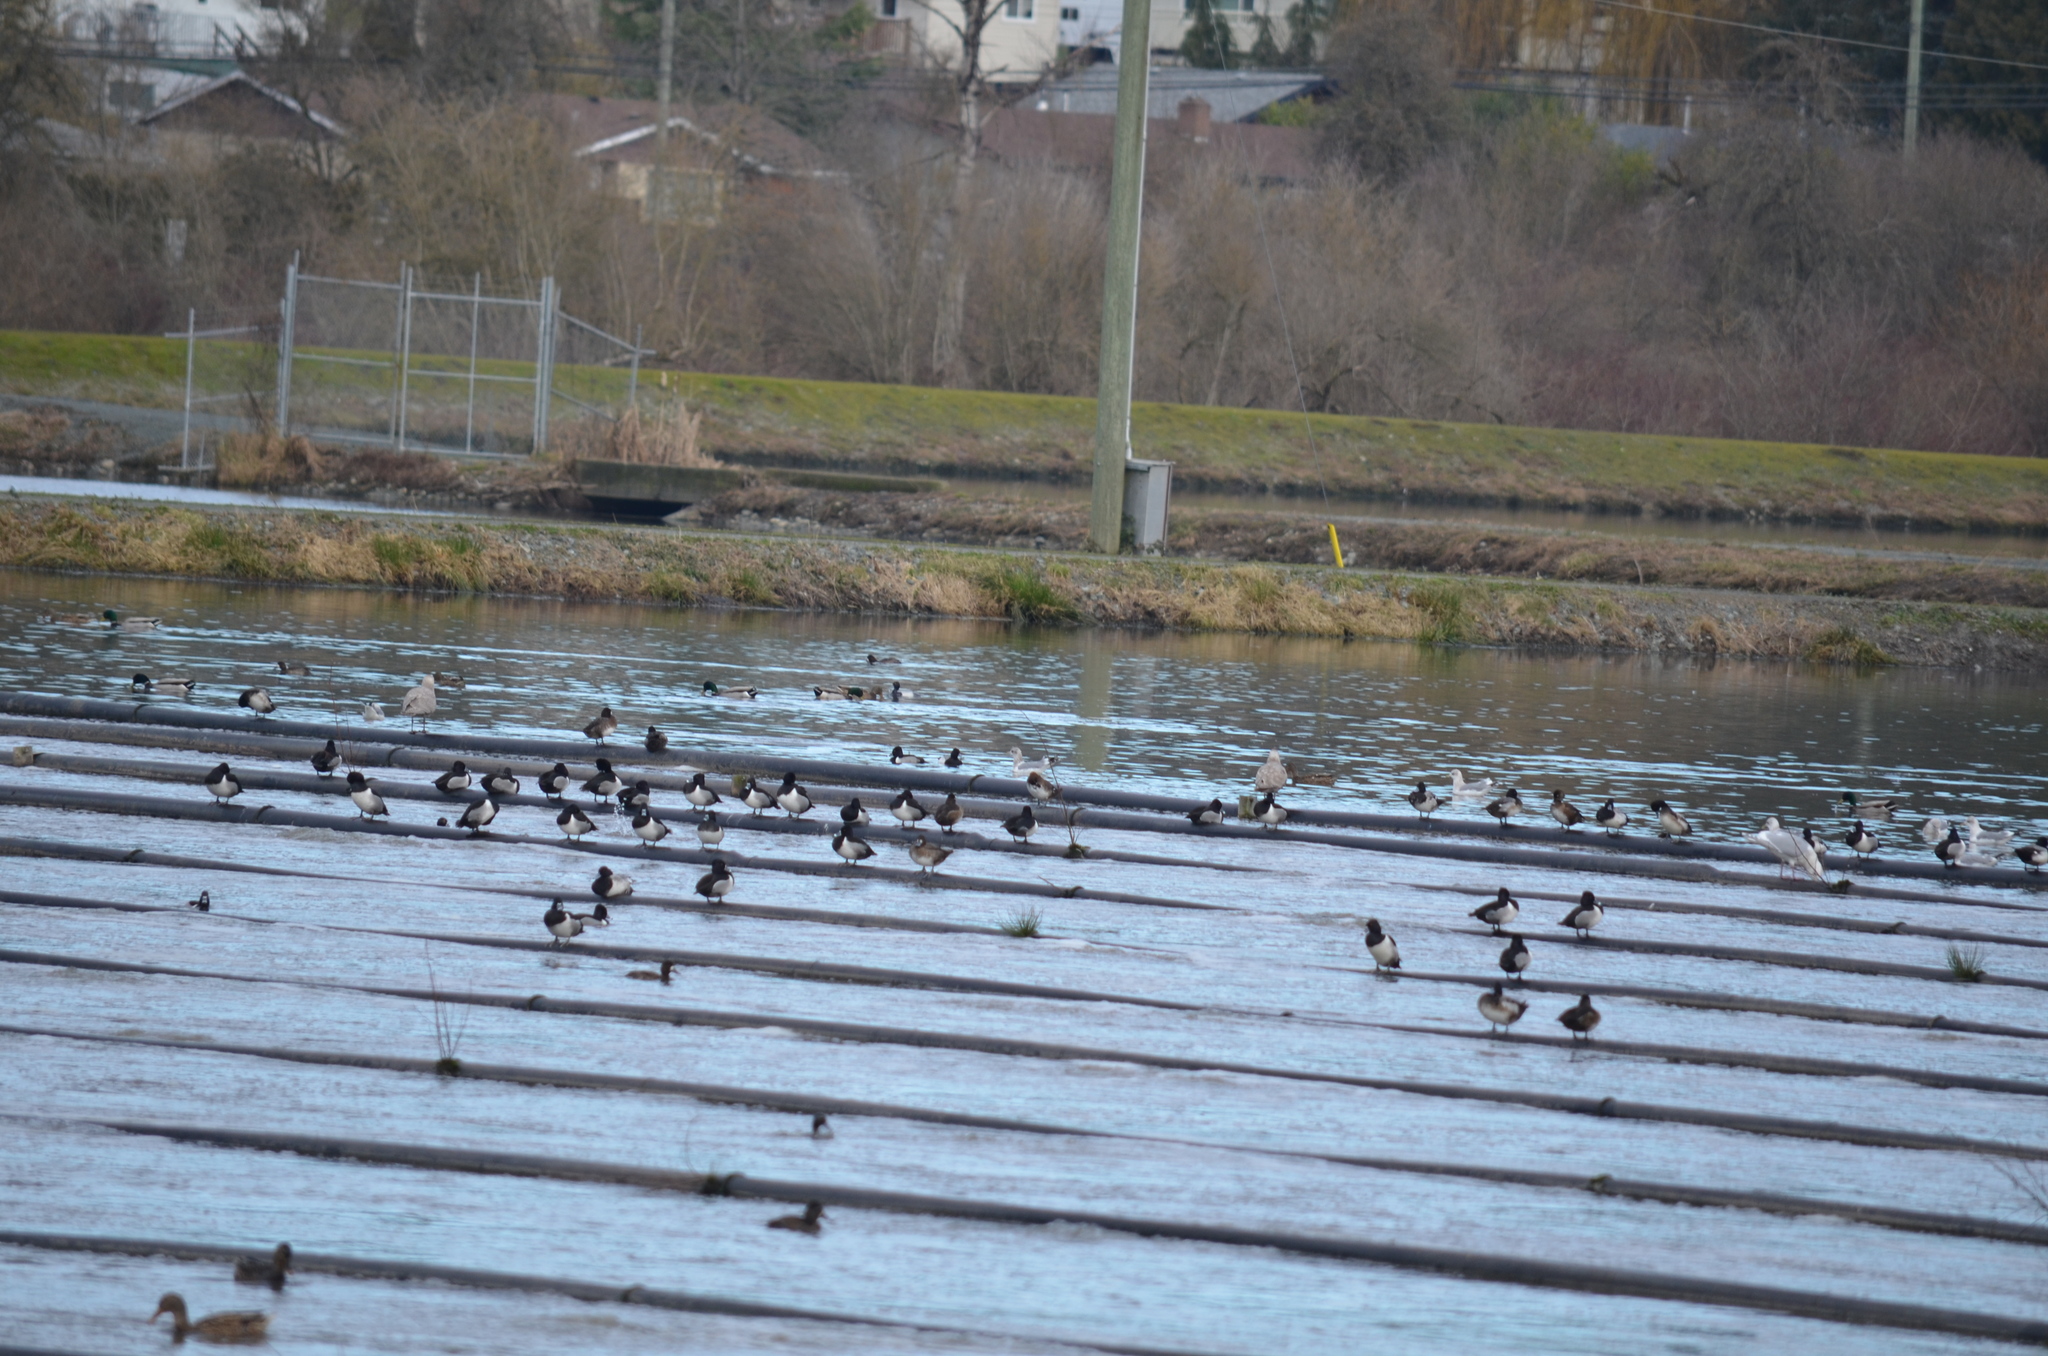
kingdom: Animalia
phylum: Chordata
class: Aves
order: Anseriformes
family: Anatidae
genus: Aythya
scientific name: Aythya collaris
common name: Ring-necked duck
